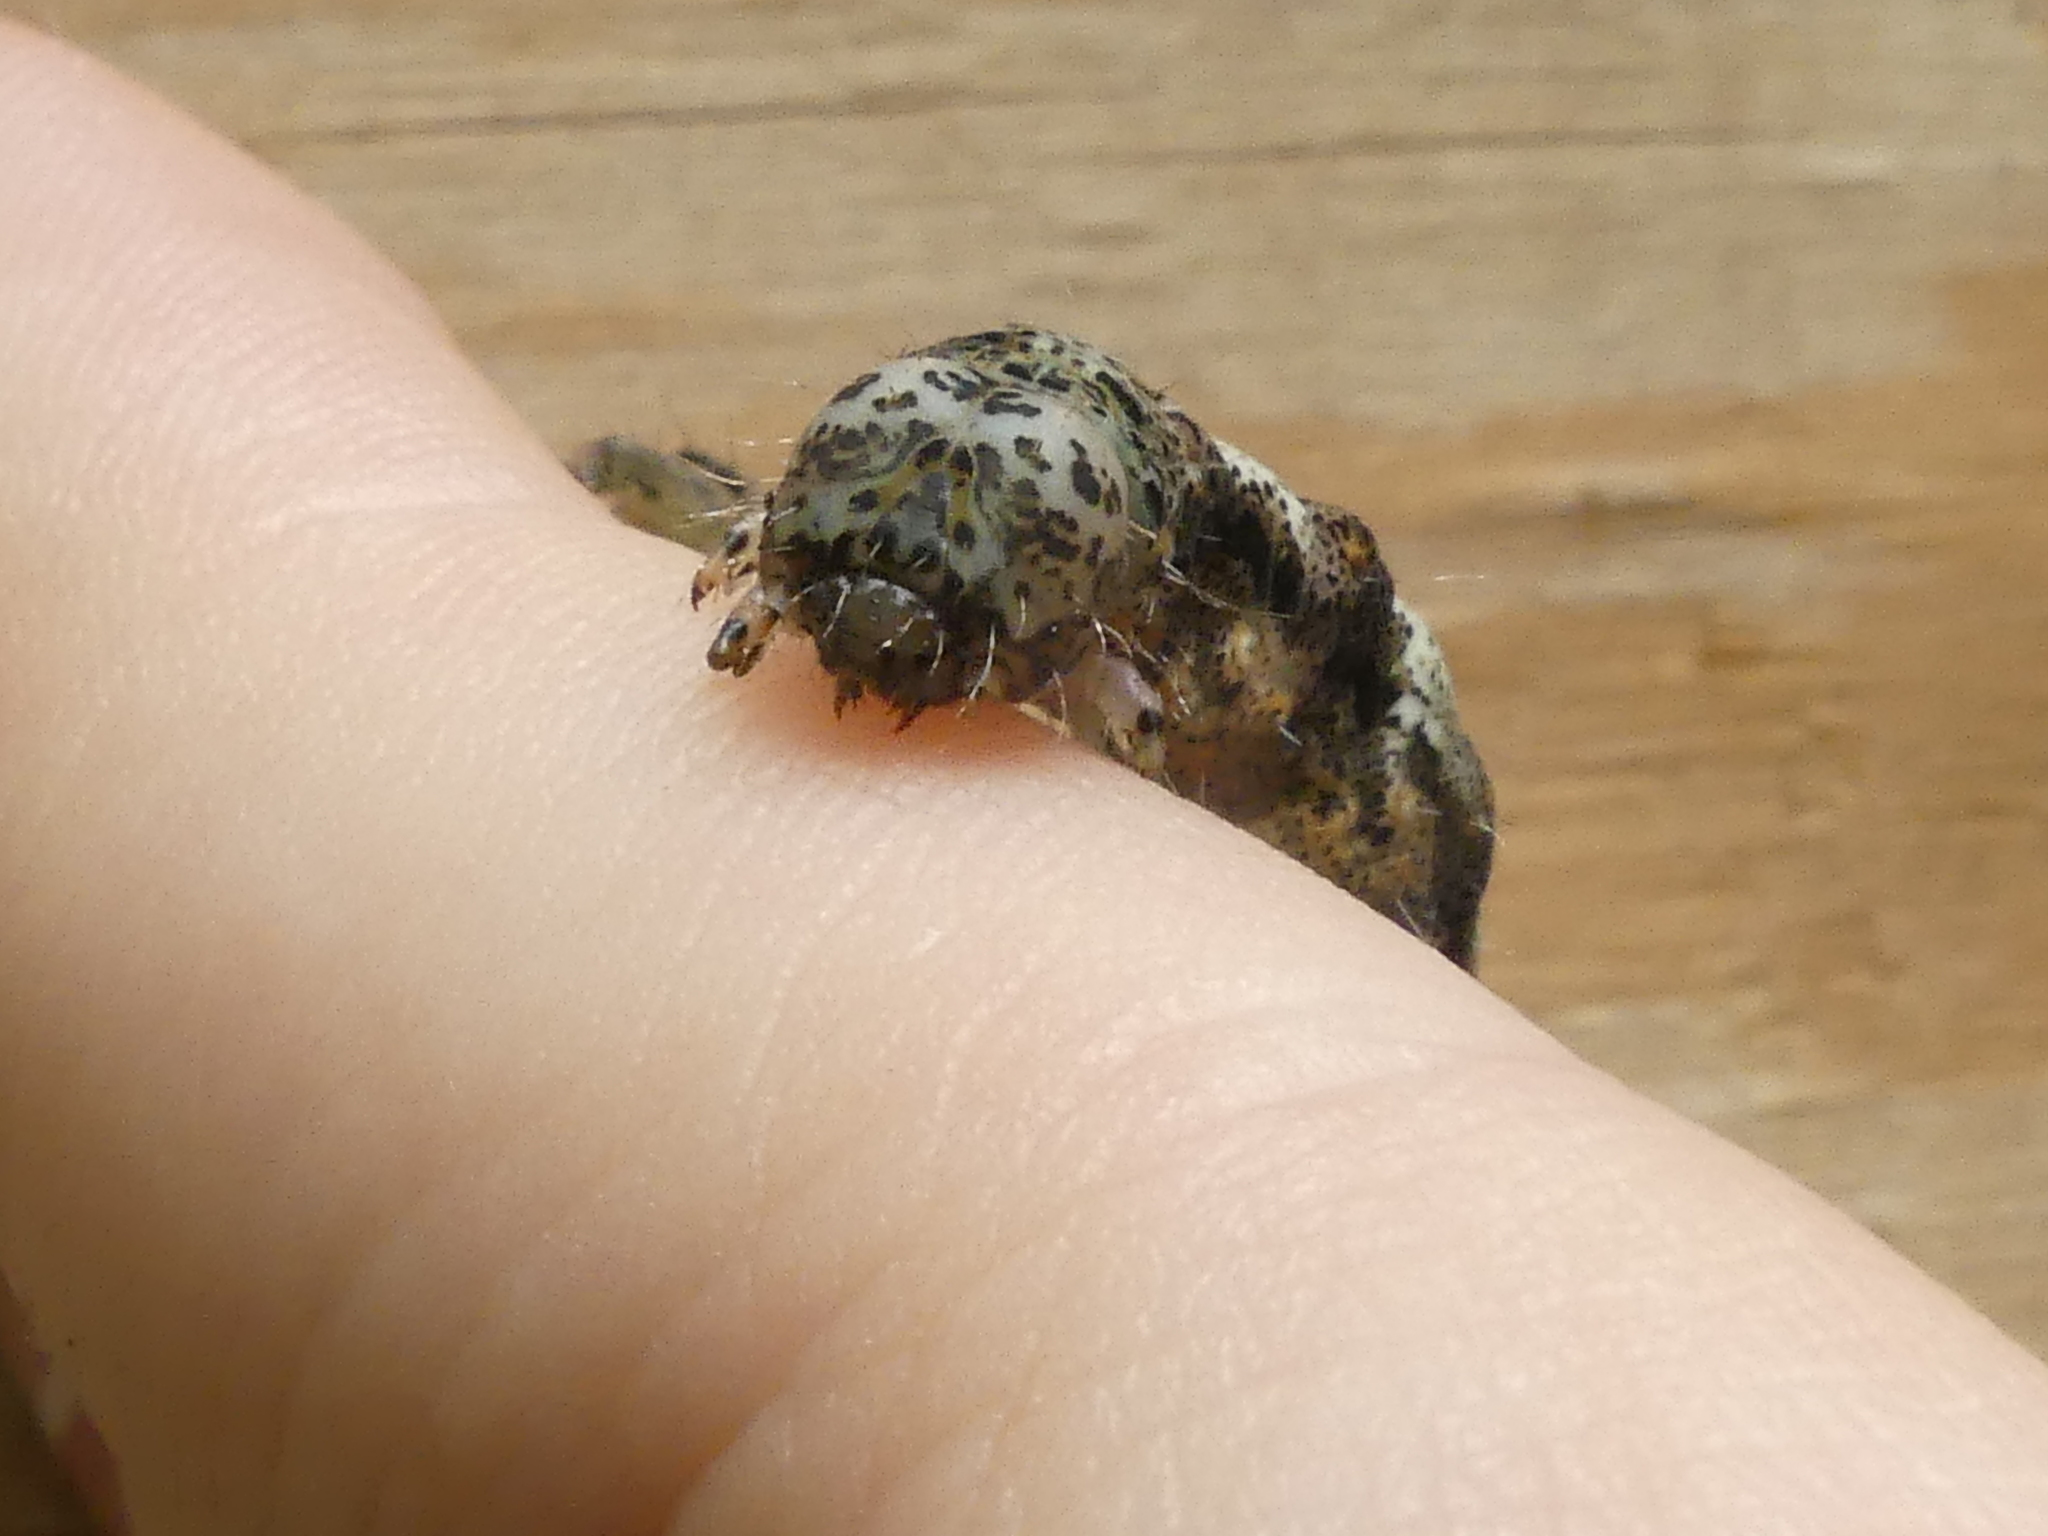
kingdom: Animalia
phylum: Arthropoda
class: Insecta
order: Lepidoptera
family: Erebidae
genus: Metria
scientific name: Metria amella
